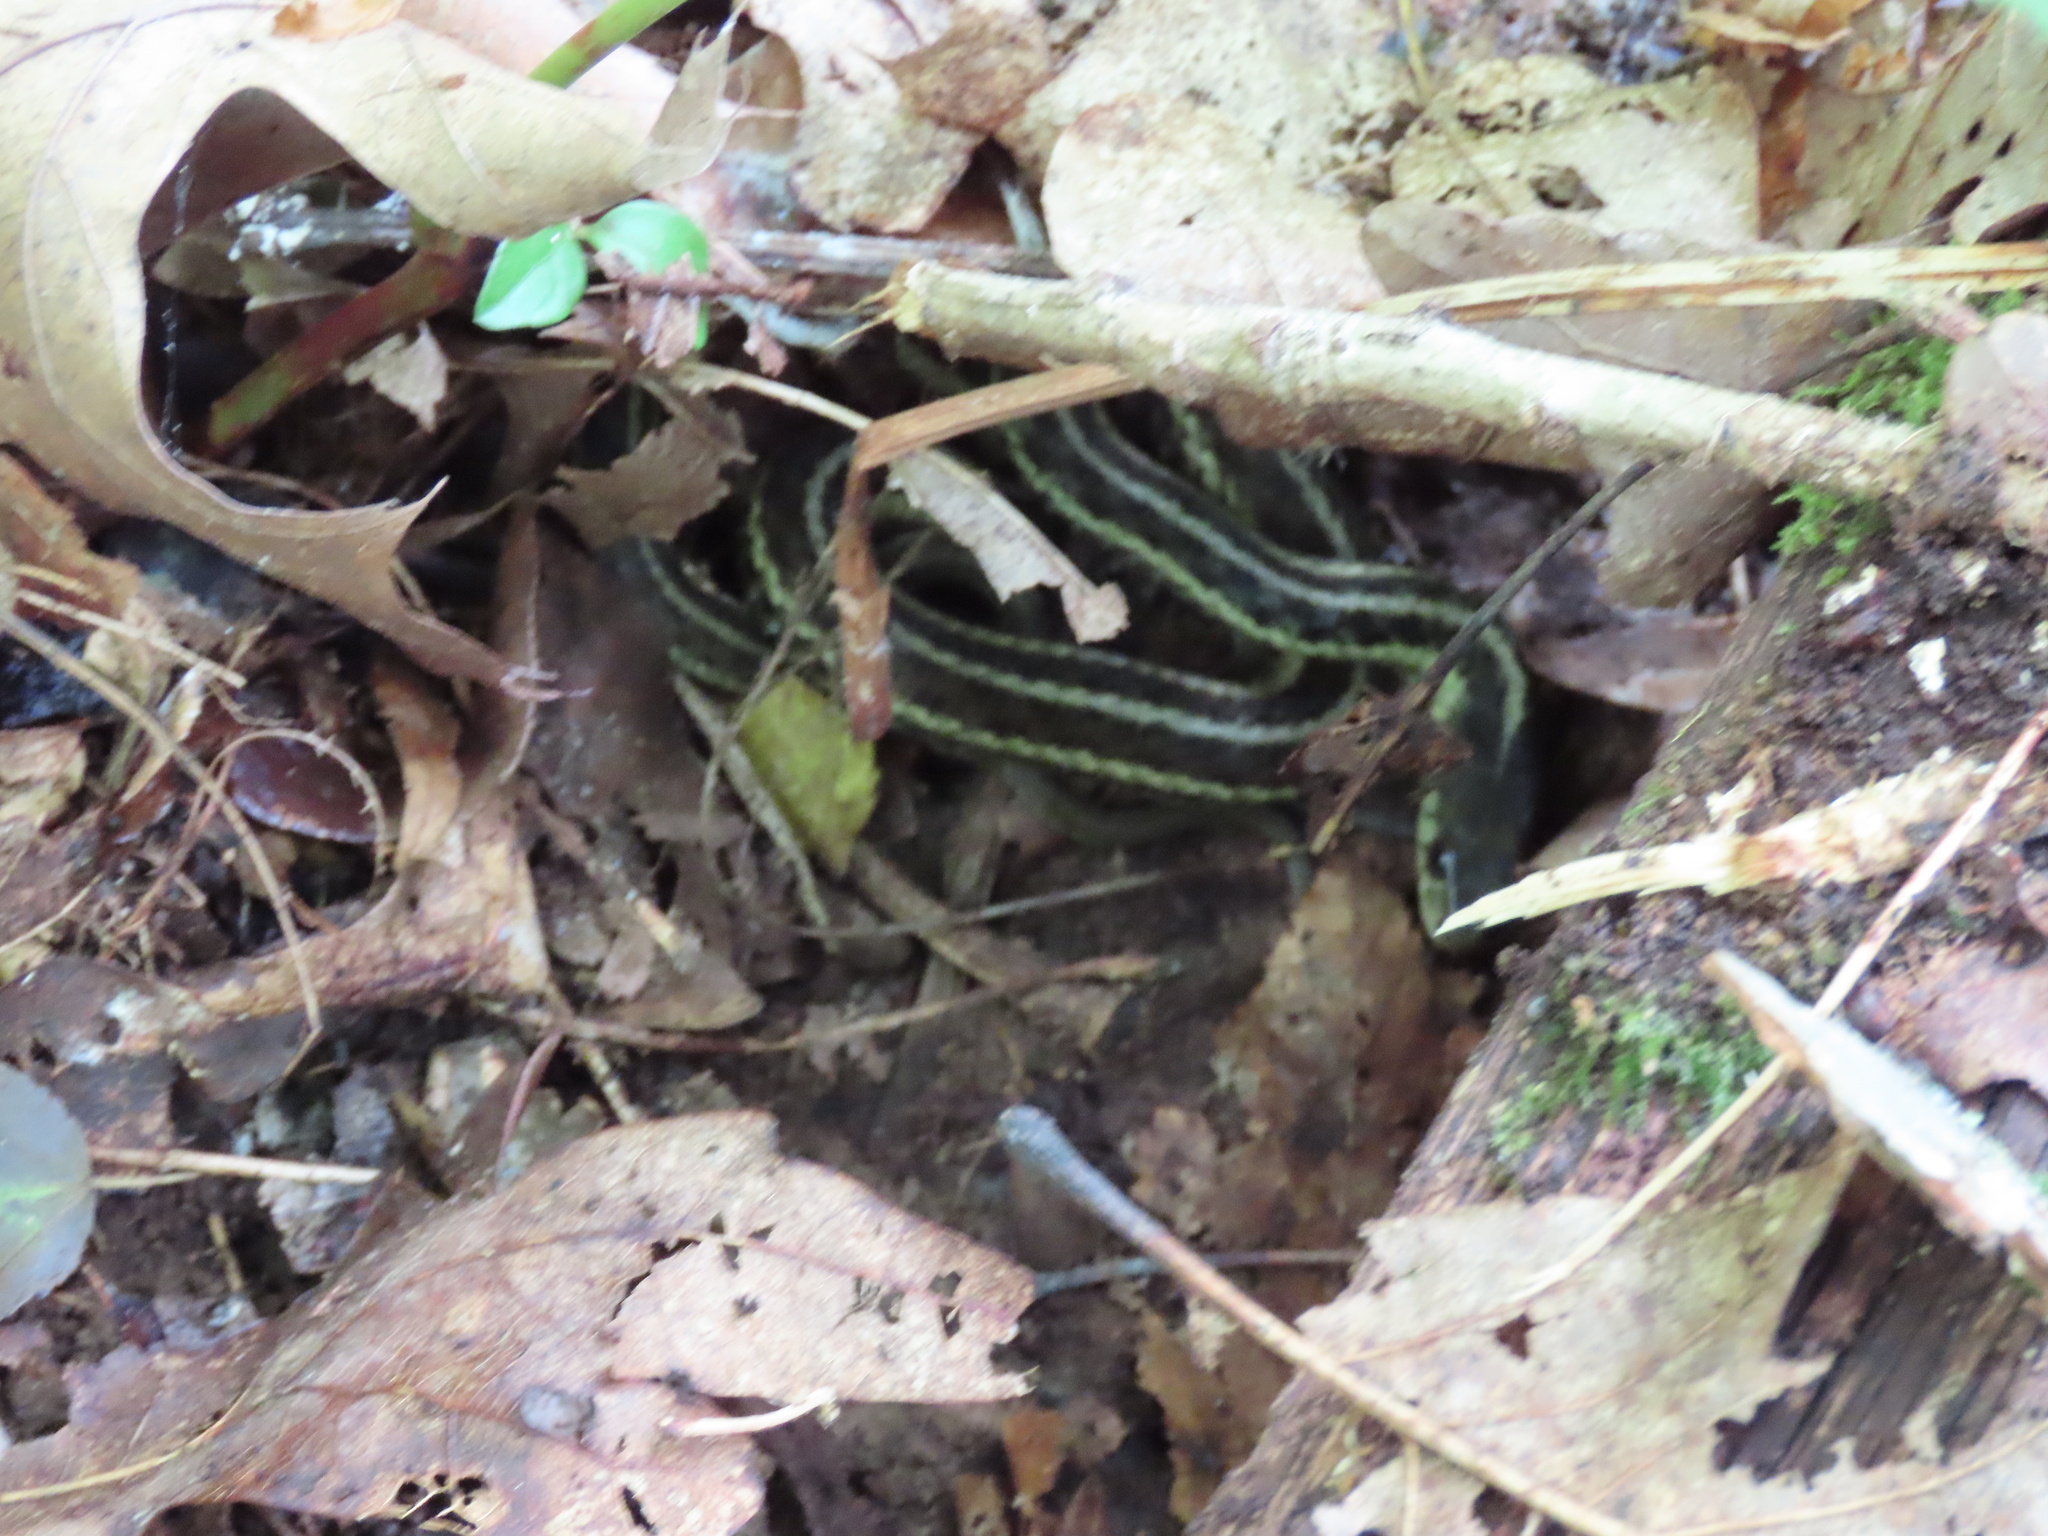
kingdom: Animalia
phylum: Chordata
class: Squamata
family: Colubridae
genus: Thamnophis
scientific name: Thamnophis sirtalis
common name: Common garter snake
